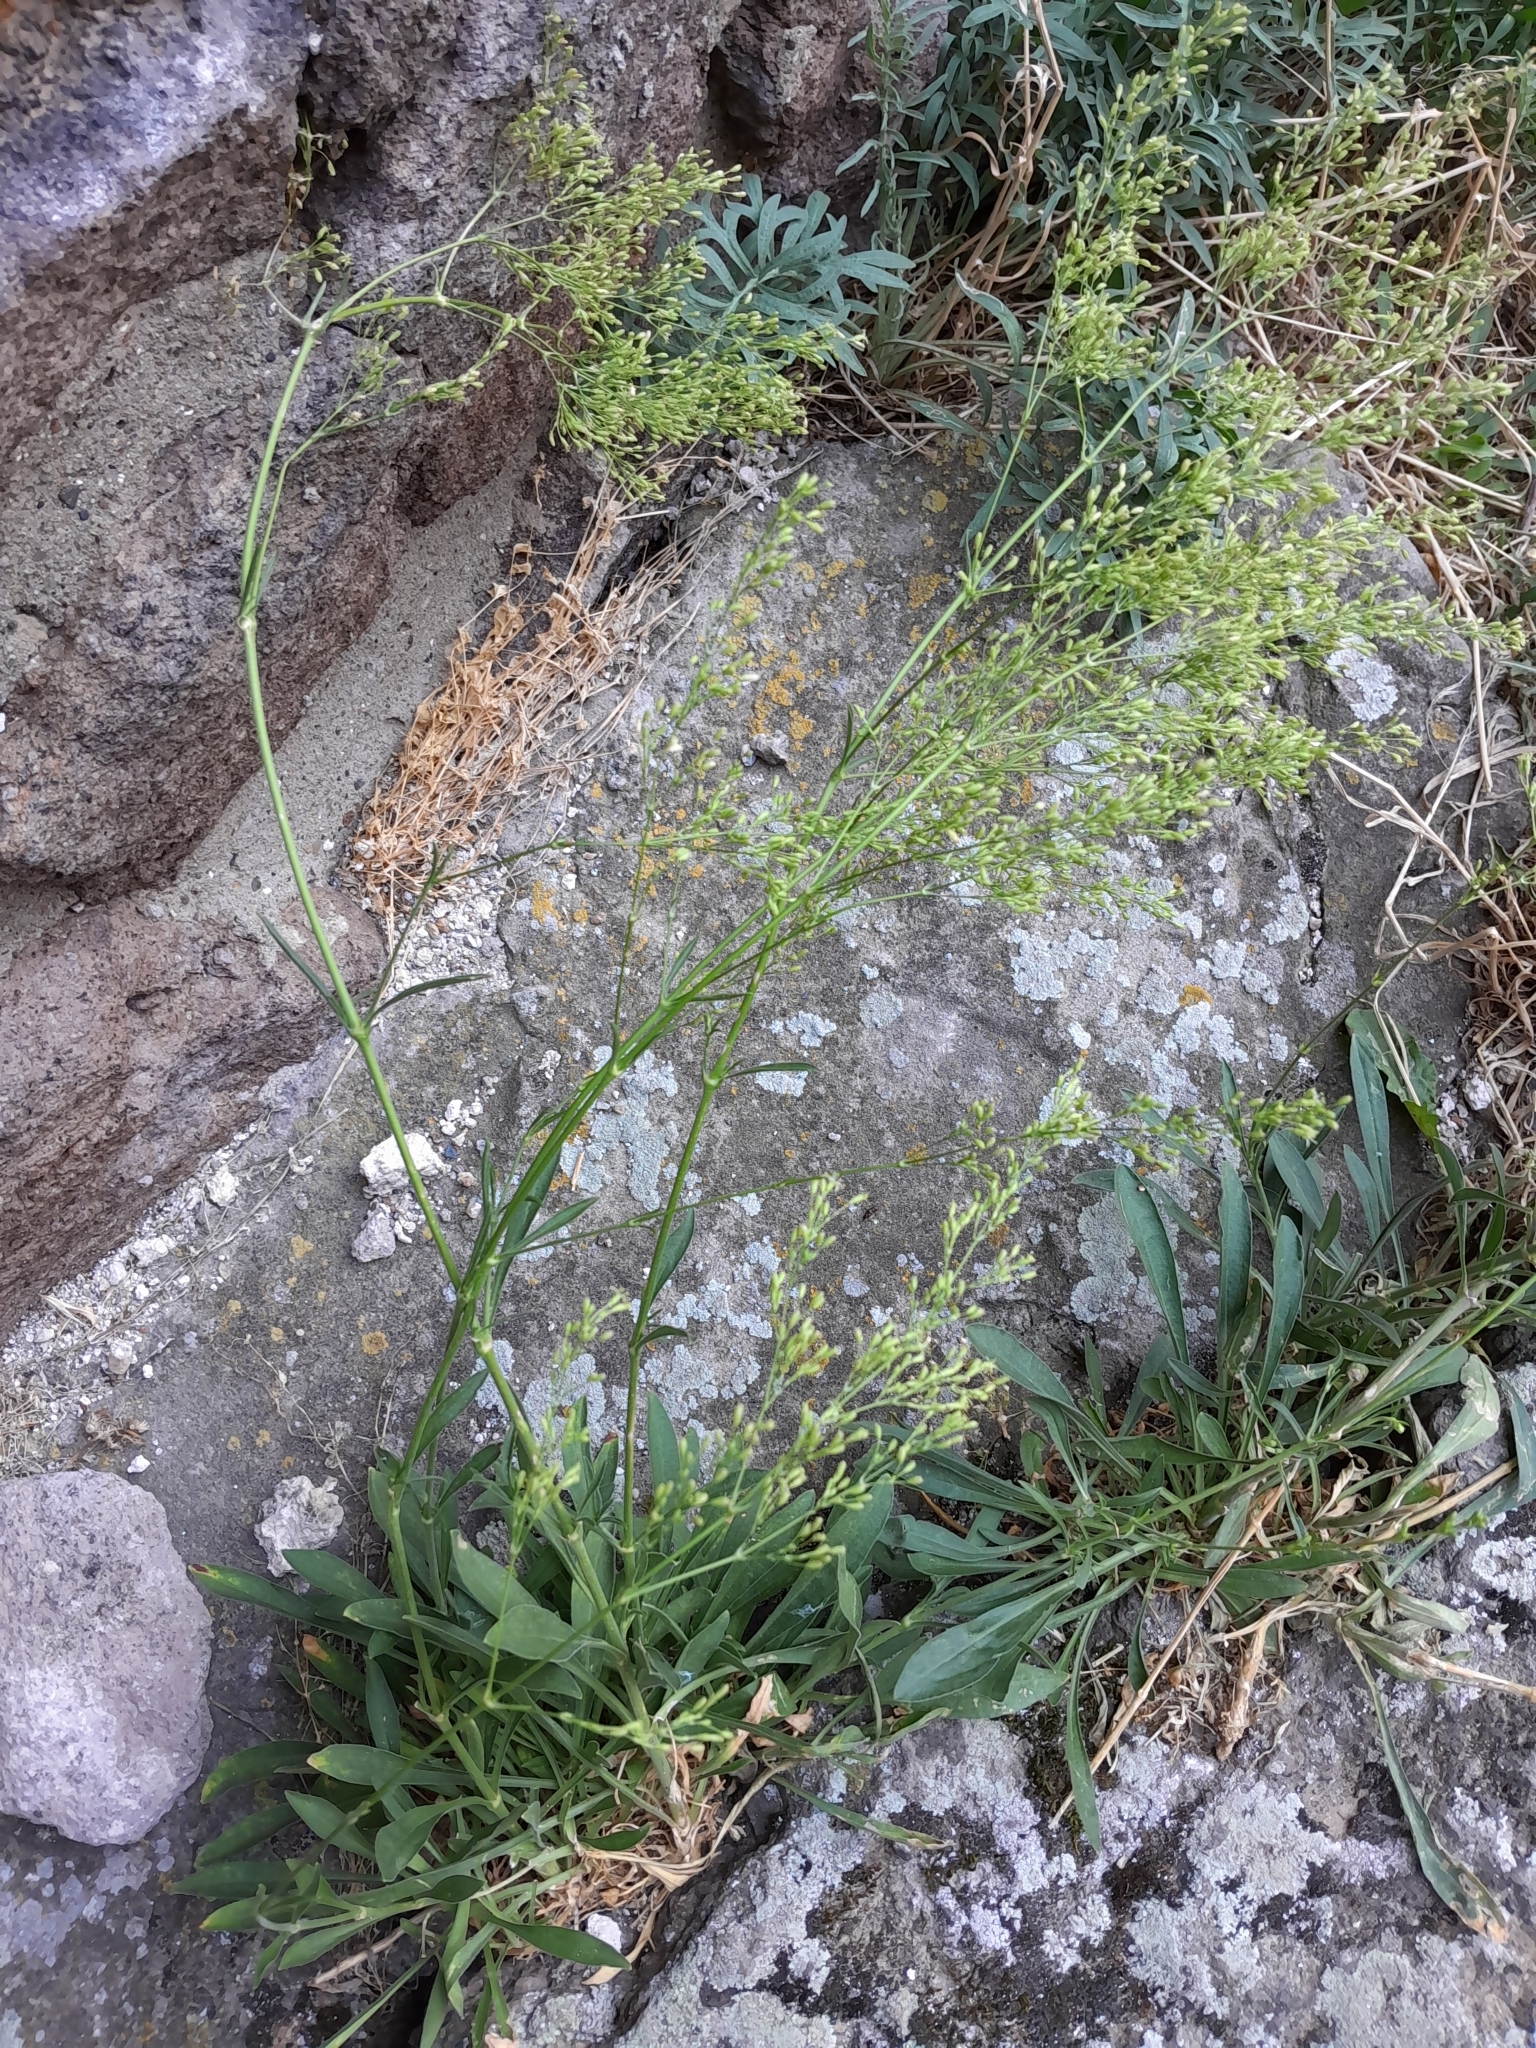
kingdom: Plantae
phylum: Tracheophyta
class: Magnoliopsida
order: Caryophyllales
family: Caryophyllaceae
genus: Silene
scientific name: Silene otites
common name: Spanish catchfly
